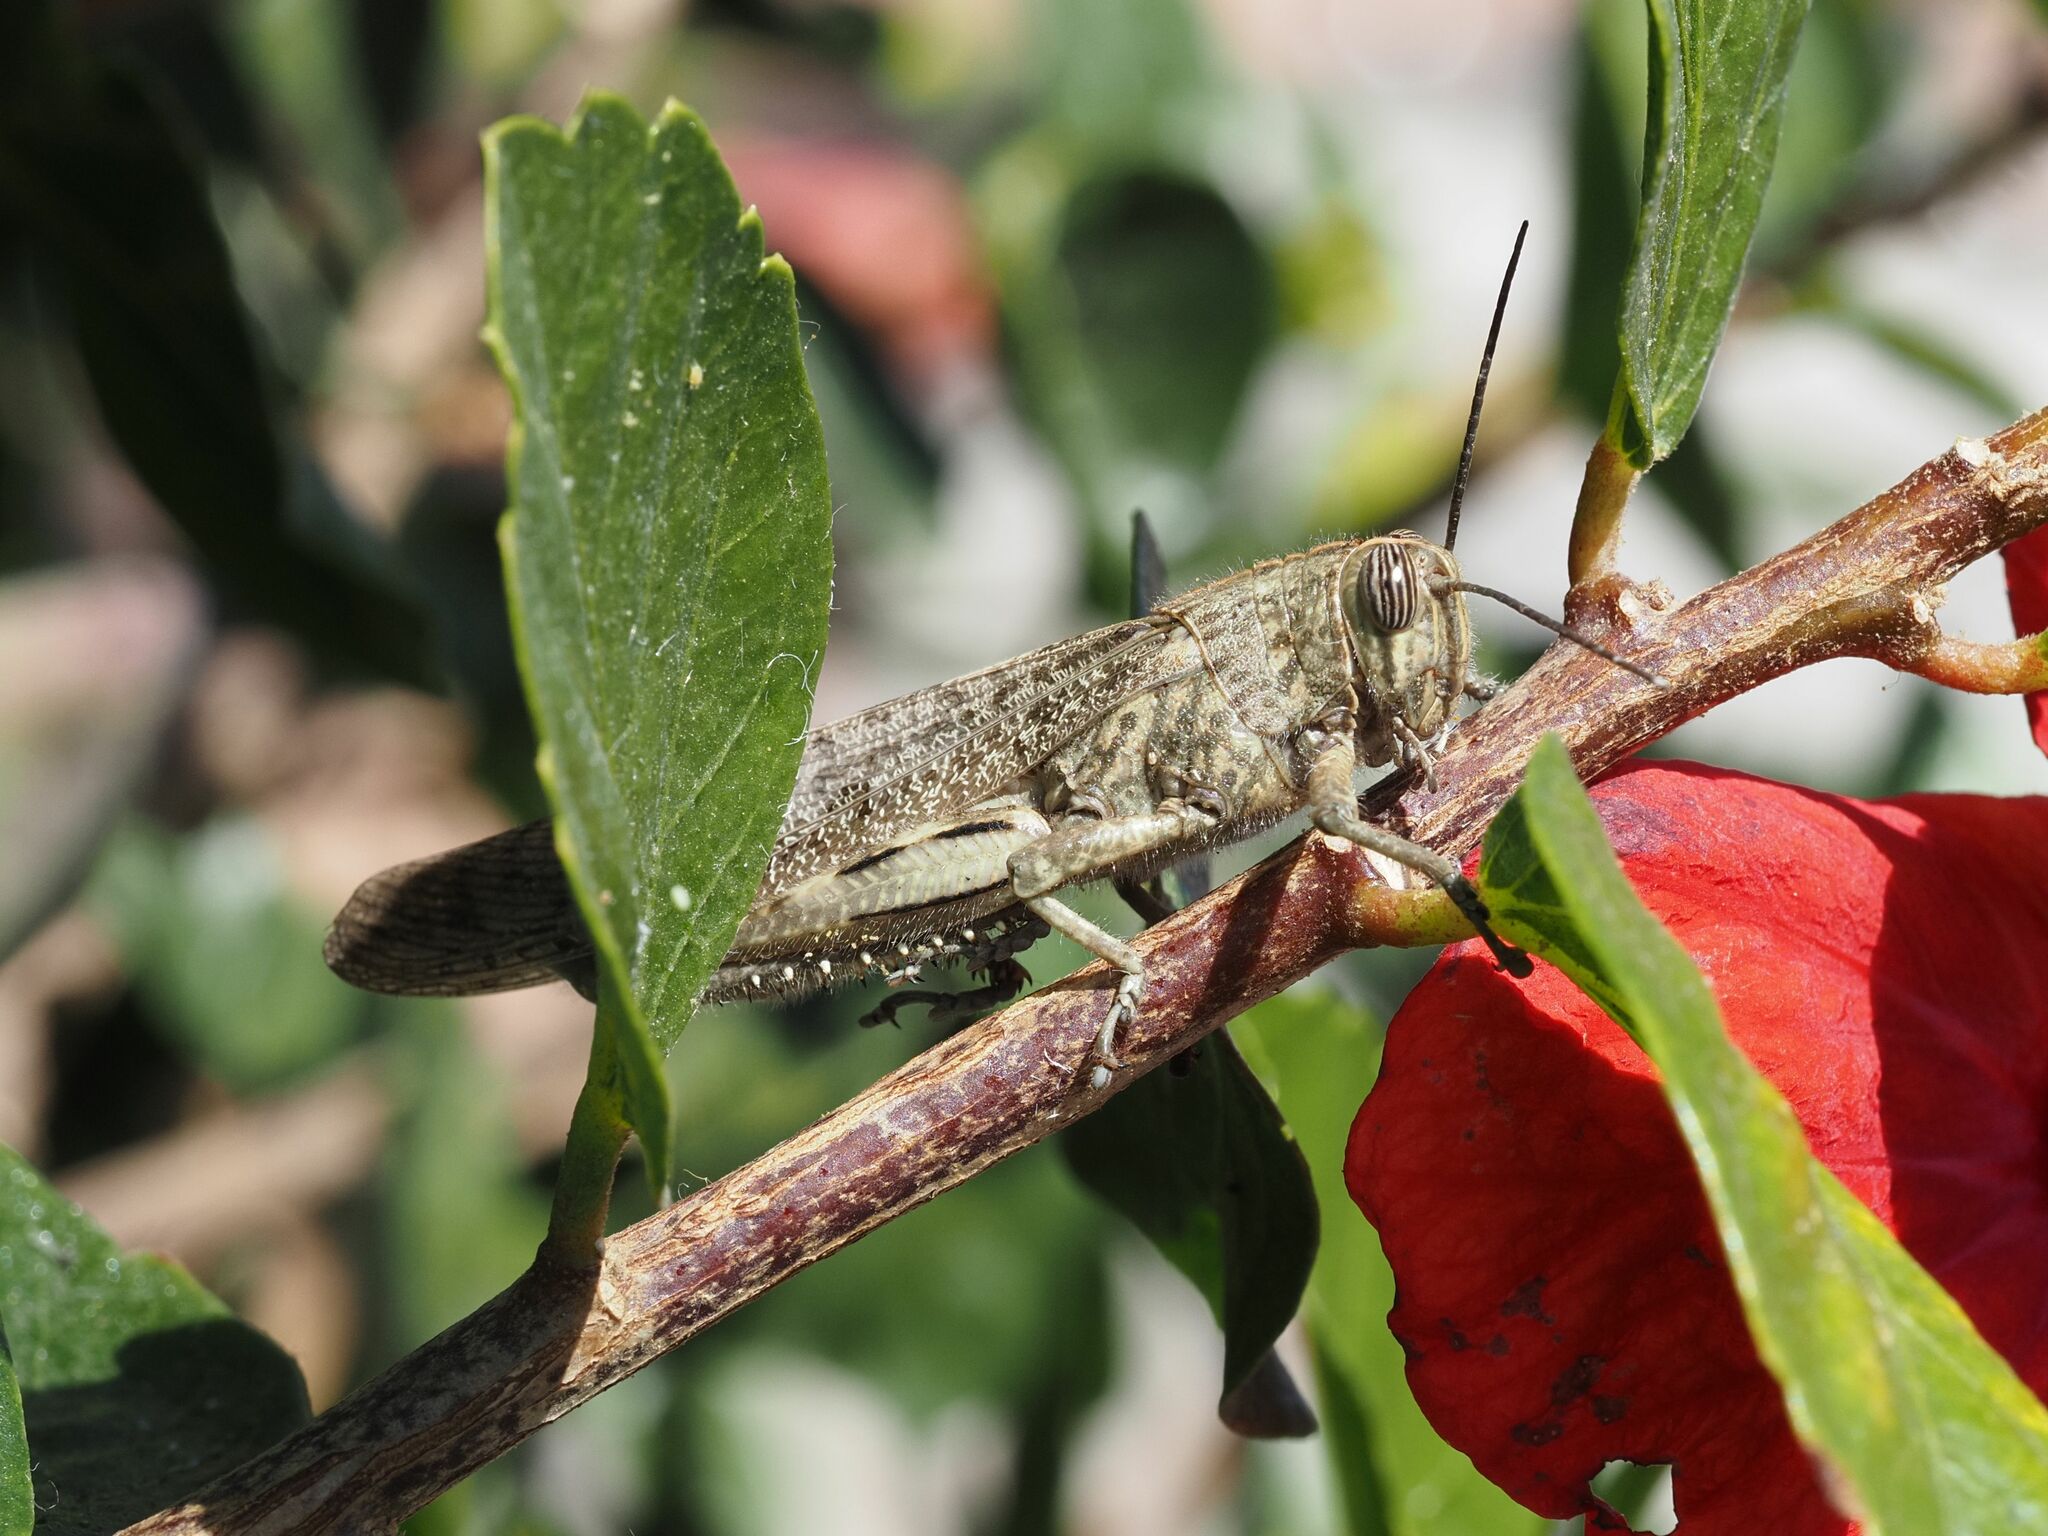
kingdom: Animalia
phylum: Arthropoda
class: Insecta
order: Orthoptera
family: Acrididae
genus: Anacridium
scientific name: Anacridium aegyptium
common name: Egyptian grasshopper
